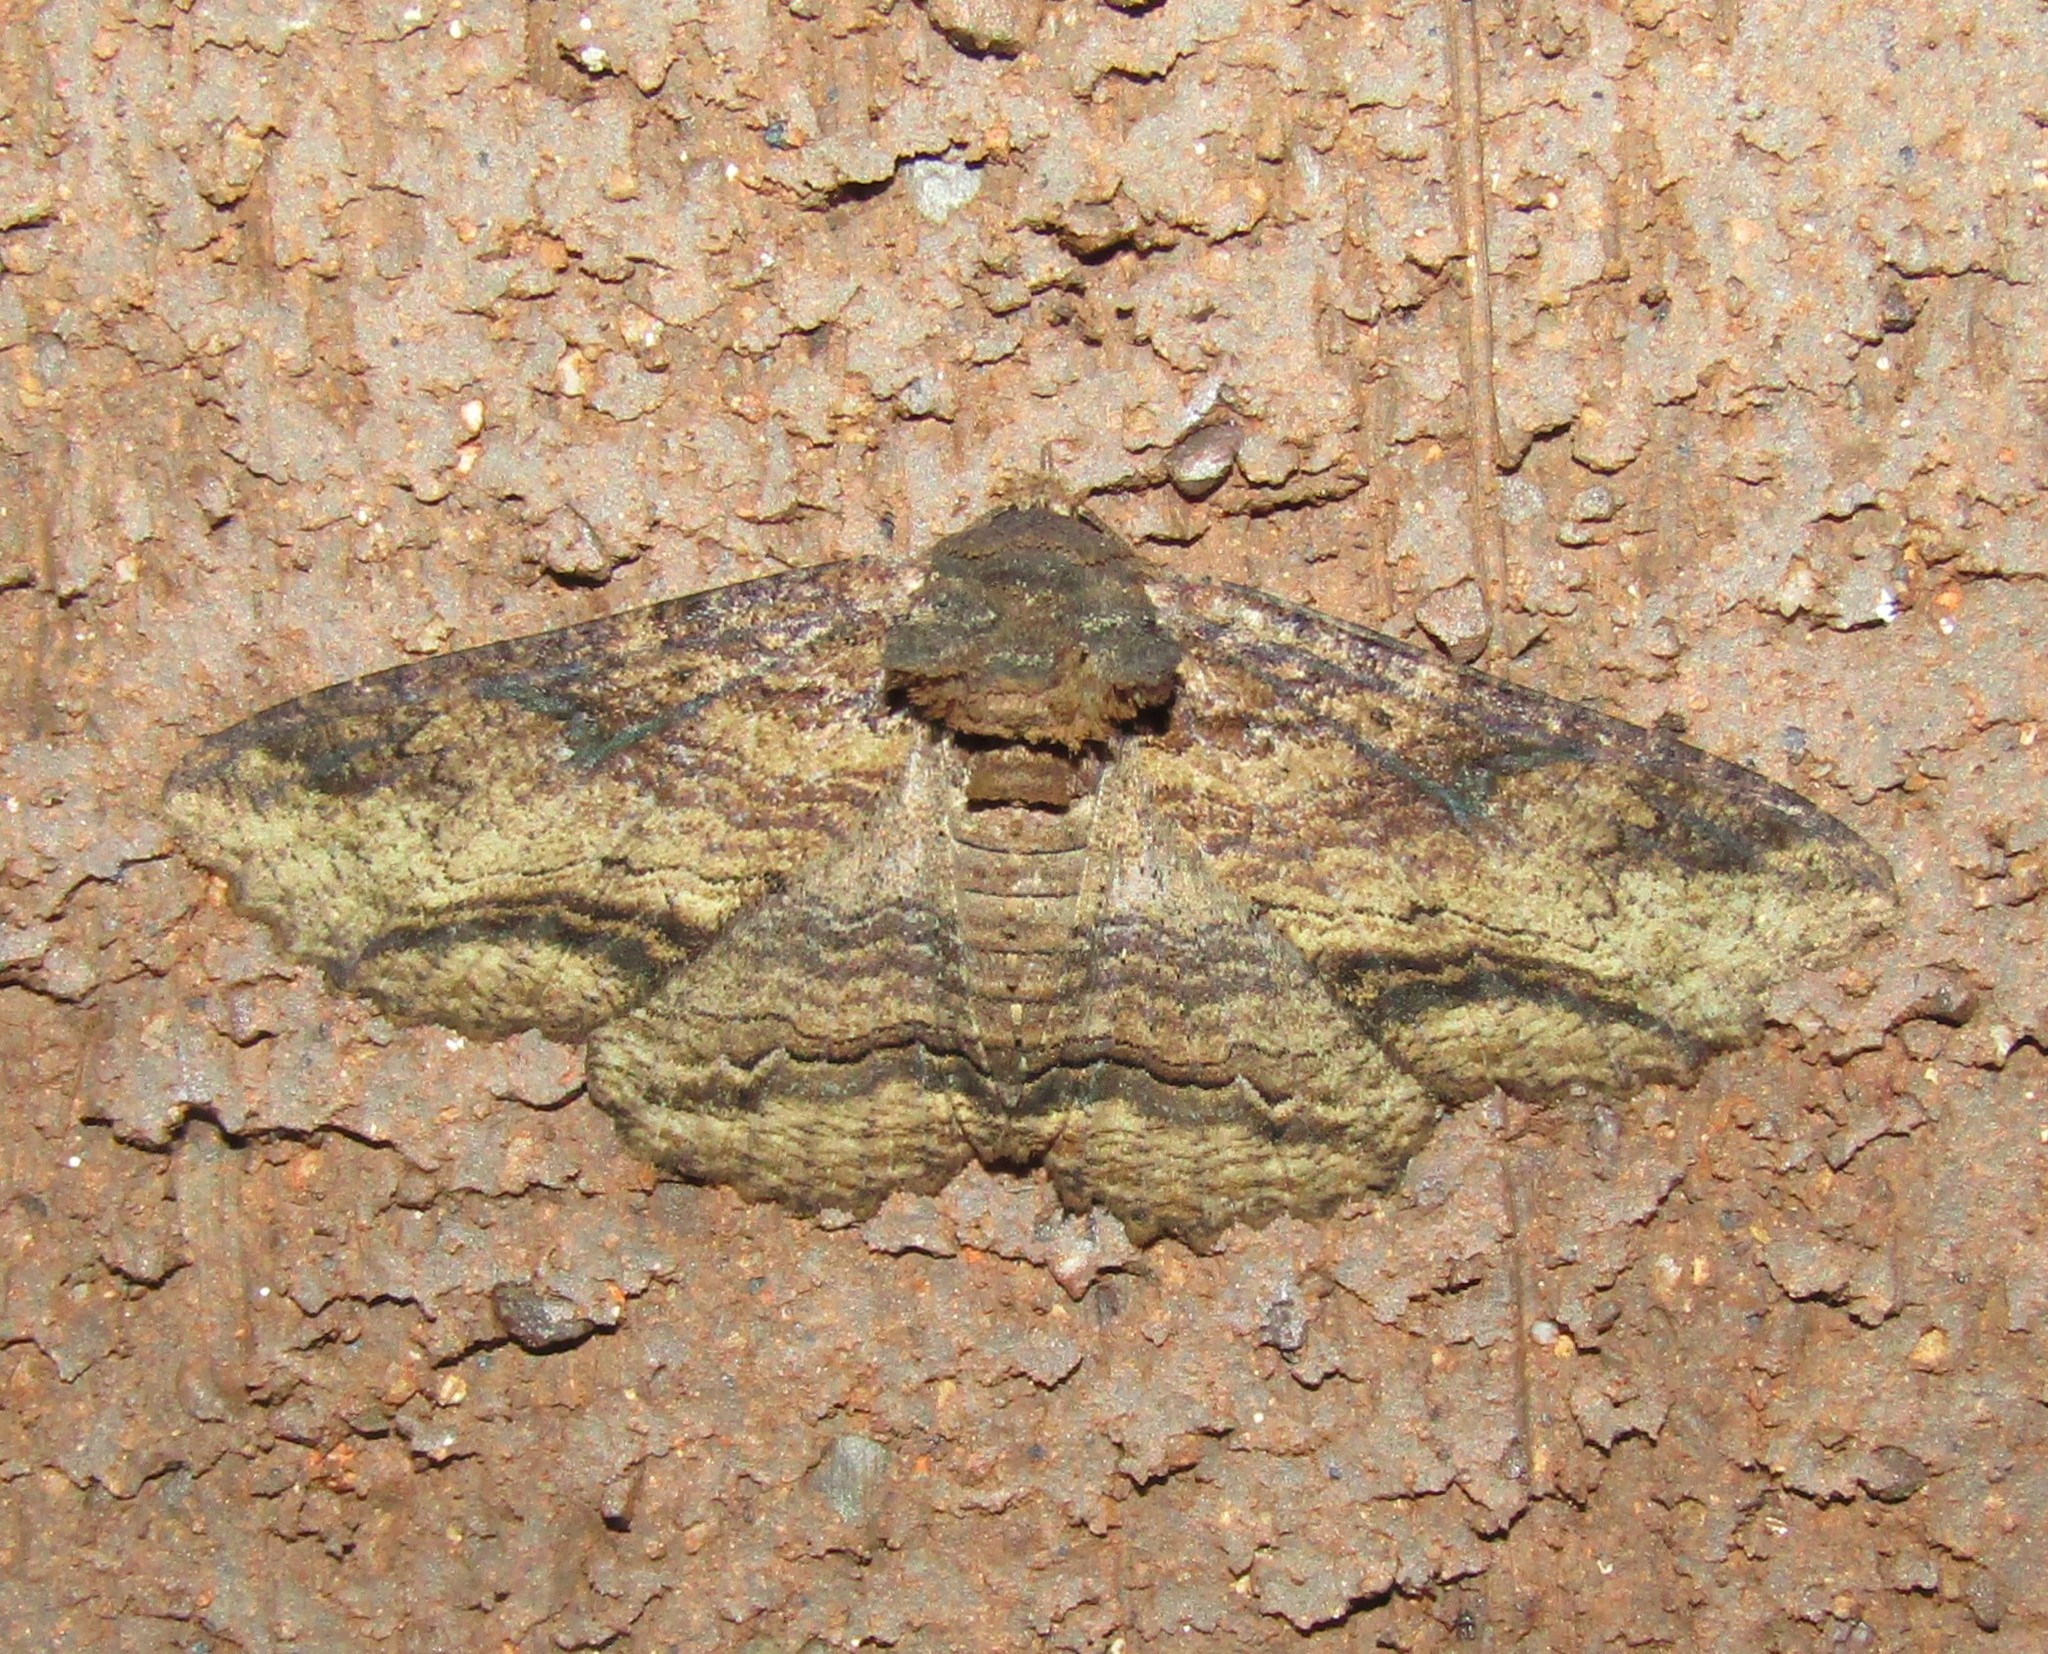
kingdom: Animalia
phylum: Arthropoda
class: Insecta
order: Lepidoptera
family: Erebidae
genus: Zale
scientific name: Zale lunata
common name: Lunate zale moth
